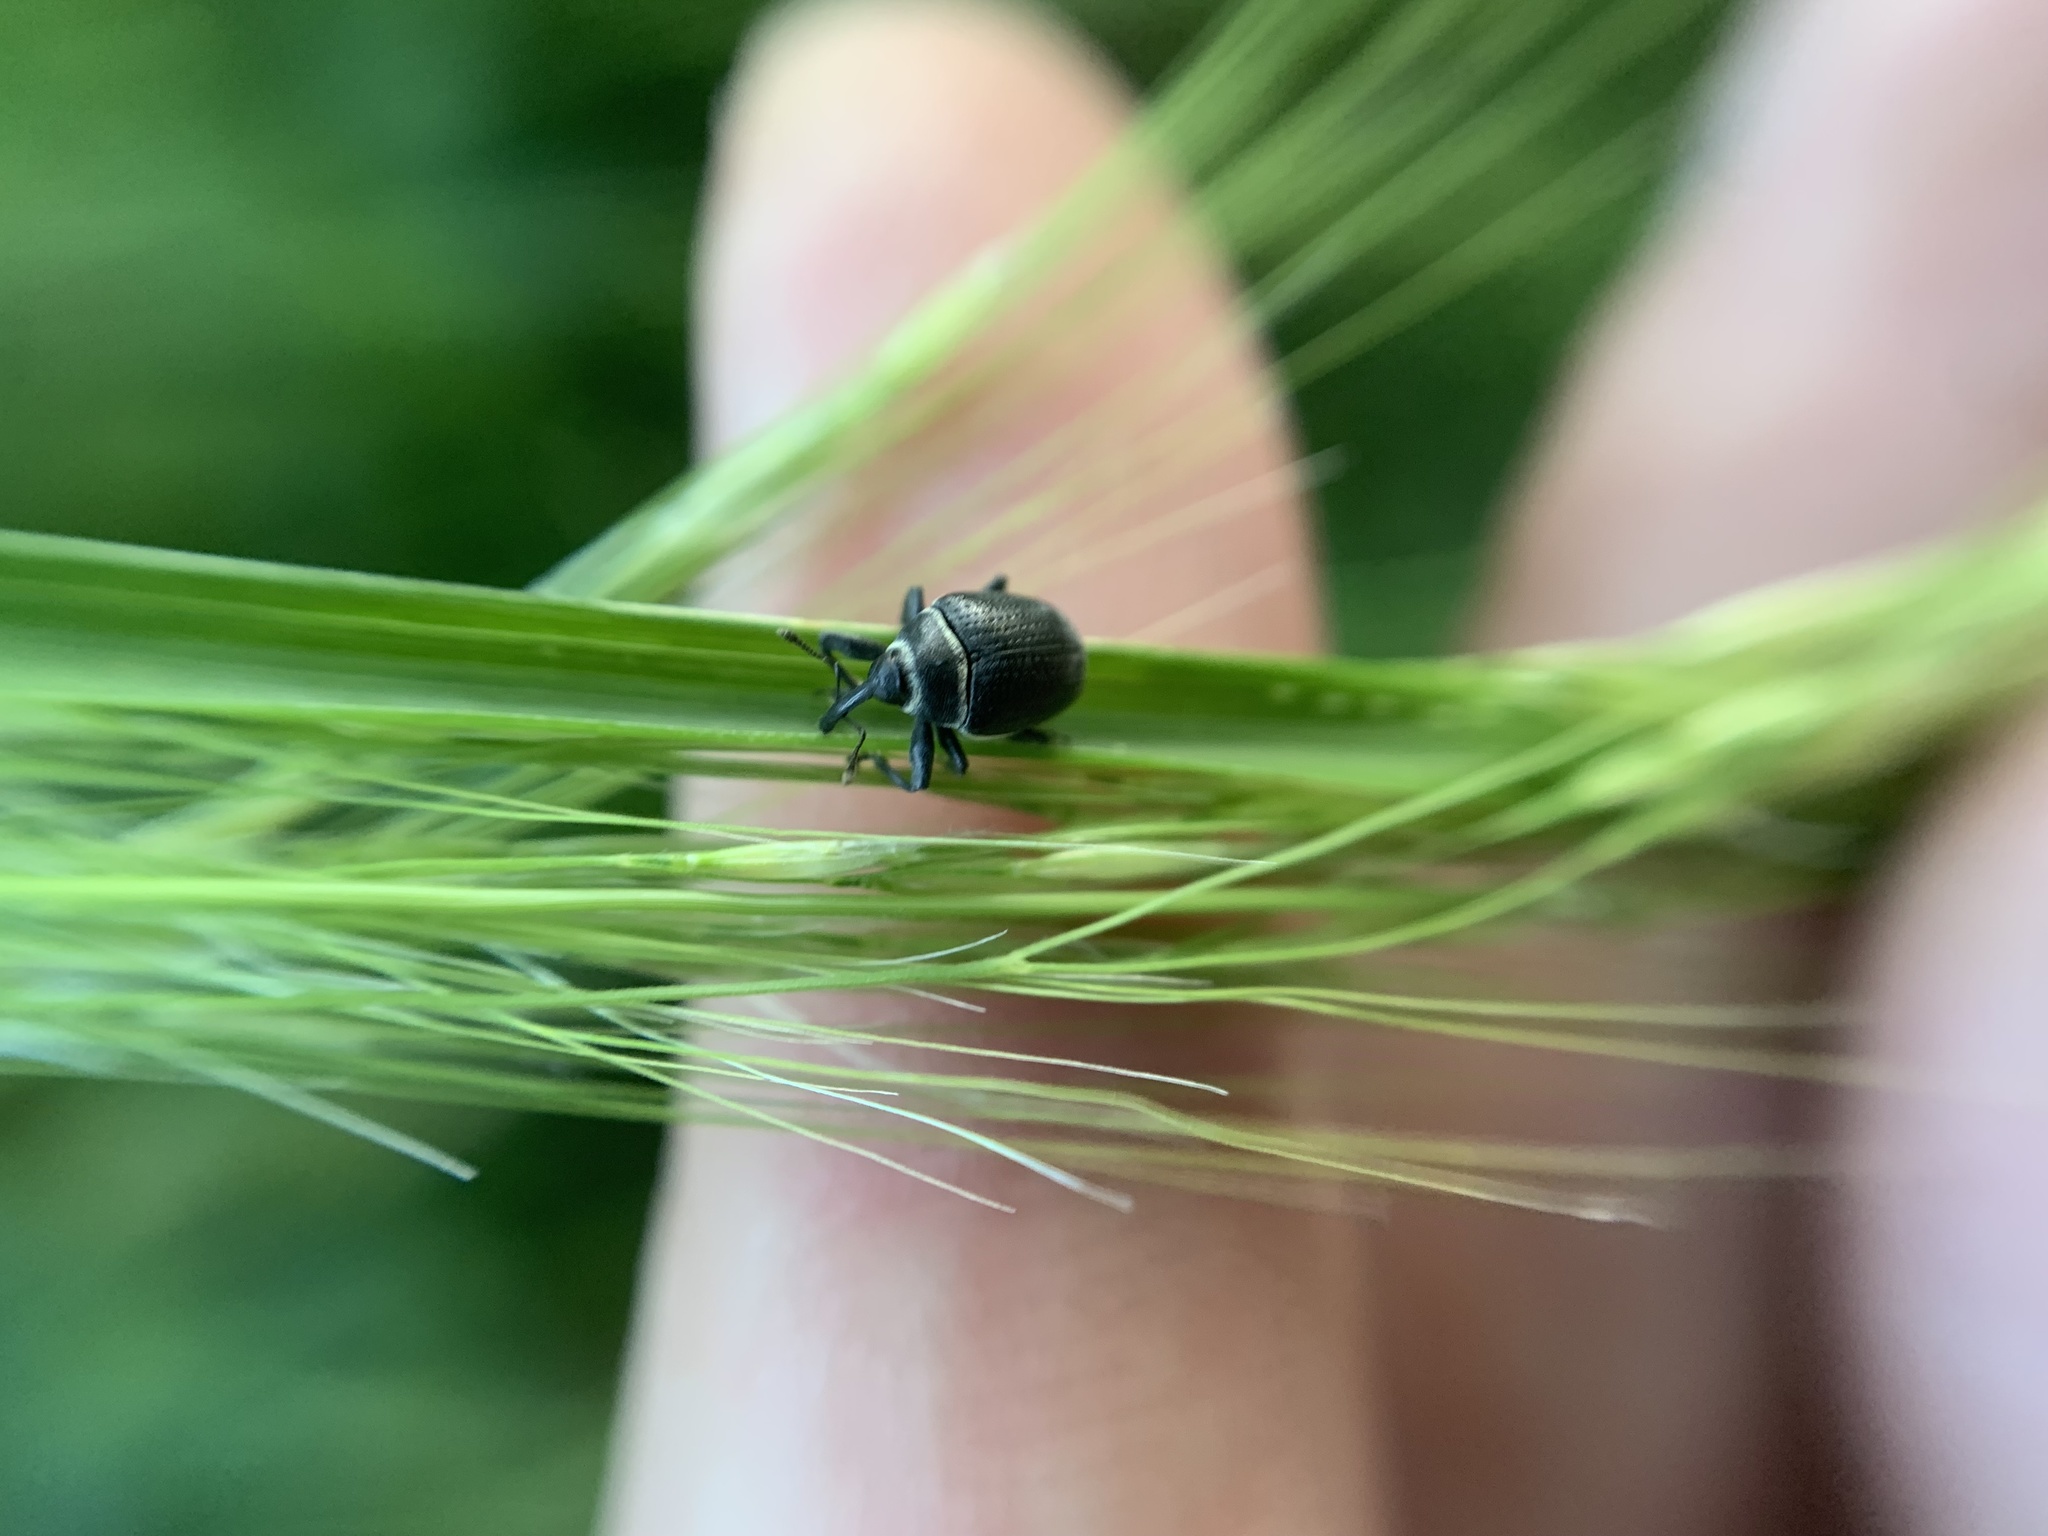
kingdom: Animalia
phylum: Arthropoda
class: Insecta
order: Coleoptera
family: Curculionidae
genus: Rhyssomatus
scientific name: Rhyssomatus marginatus
